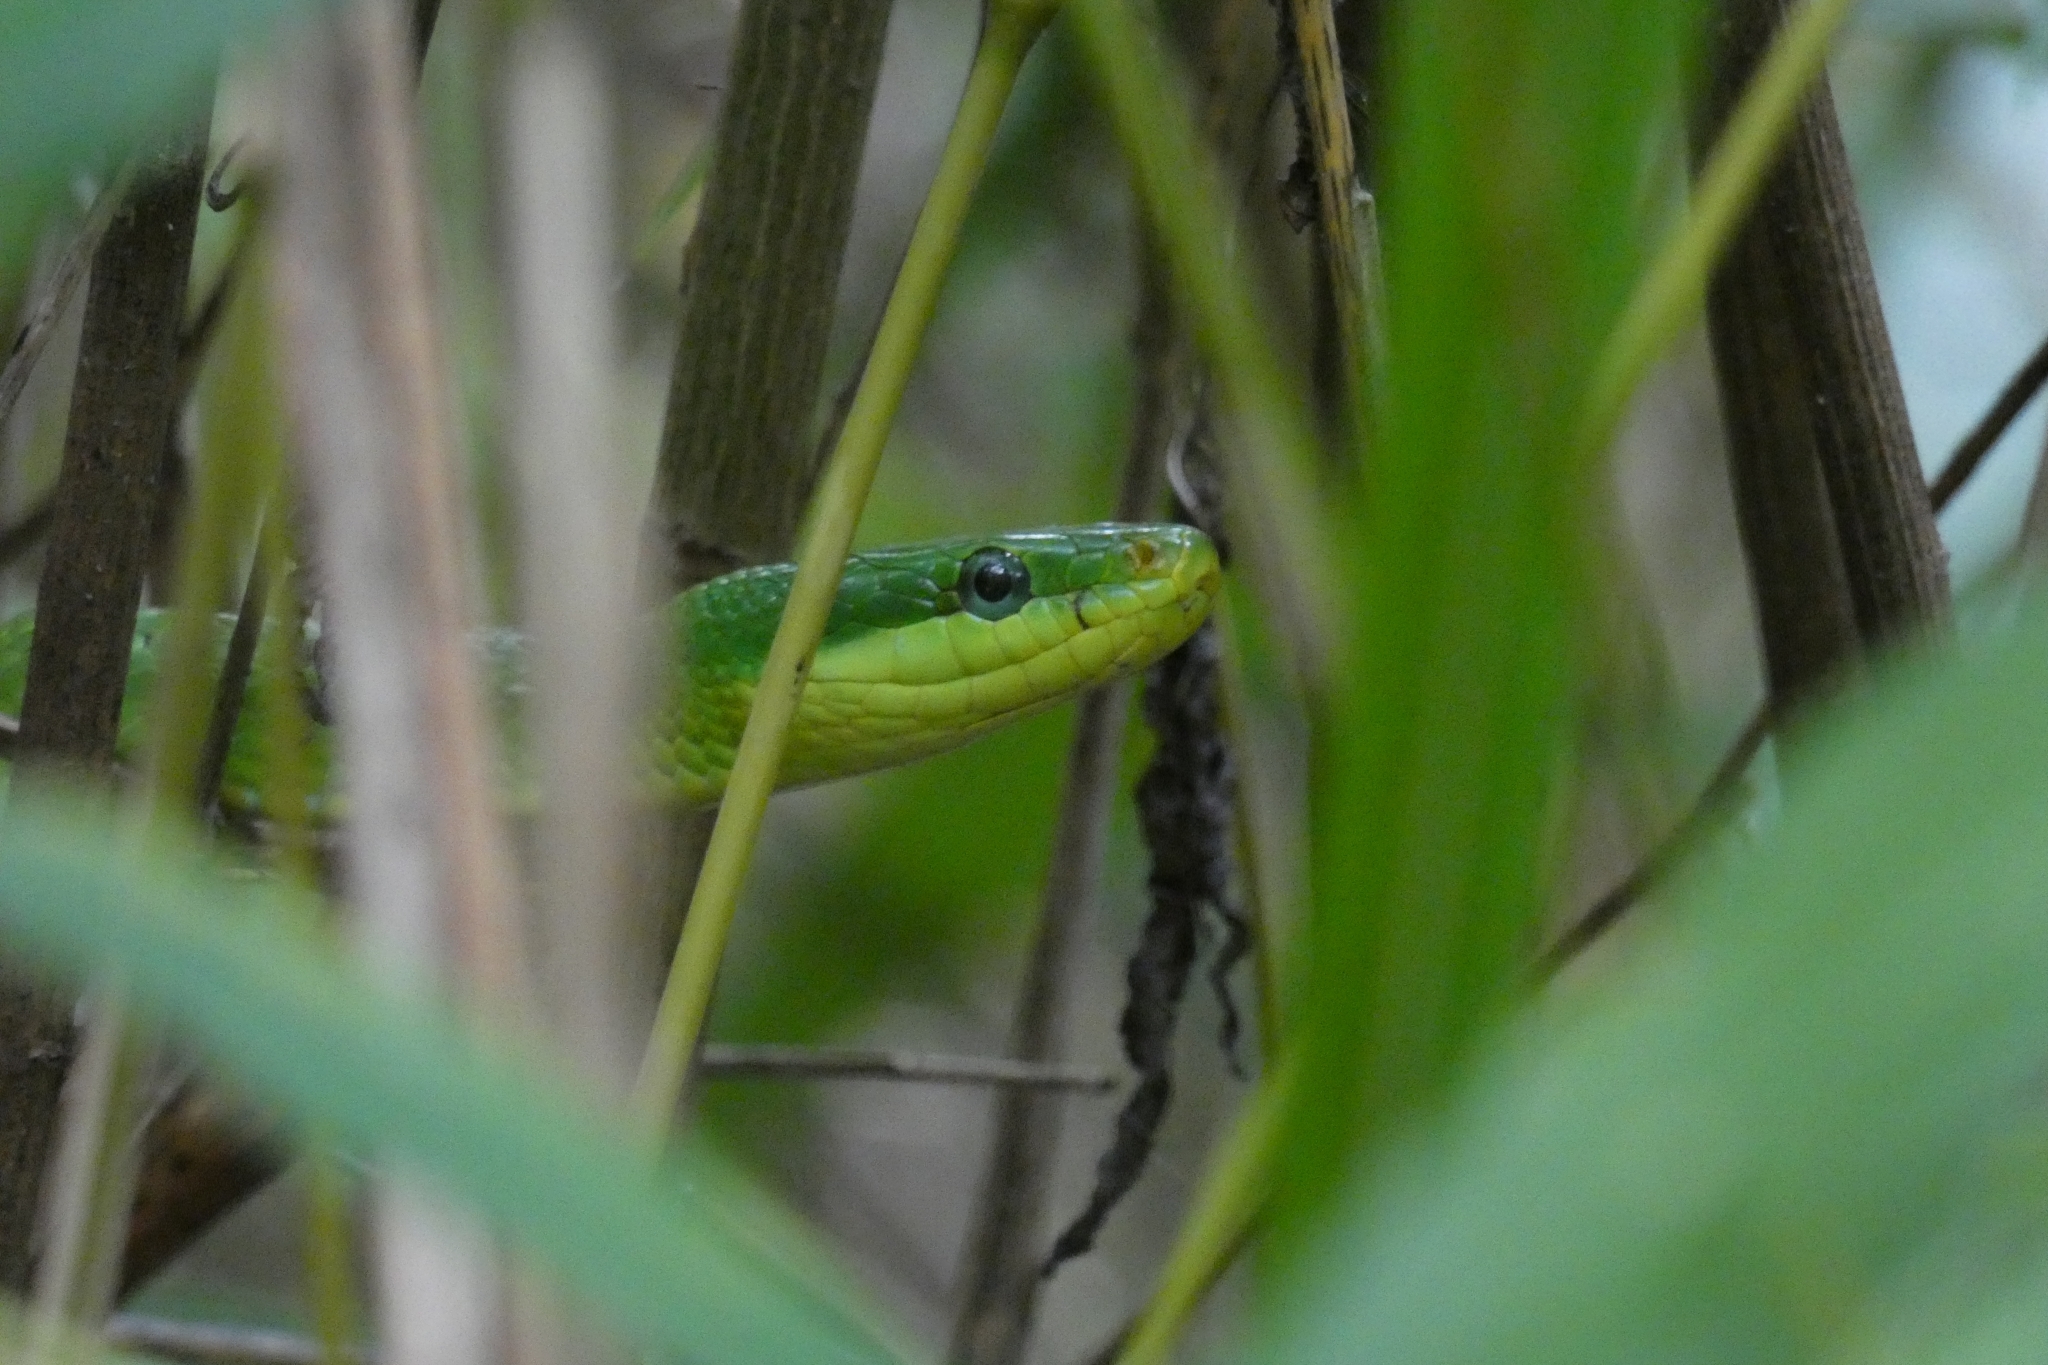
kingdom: Animalia
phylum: Chordata
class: Squamata
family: Colubridae
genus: Gonyosoma
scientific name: Gonyosoma coeruleum
